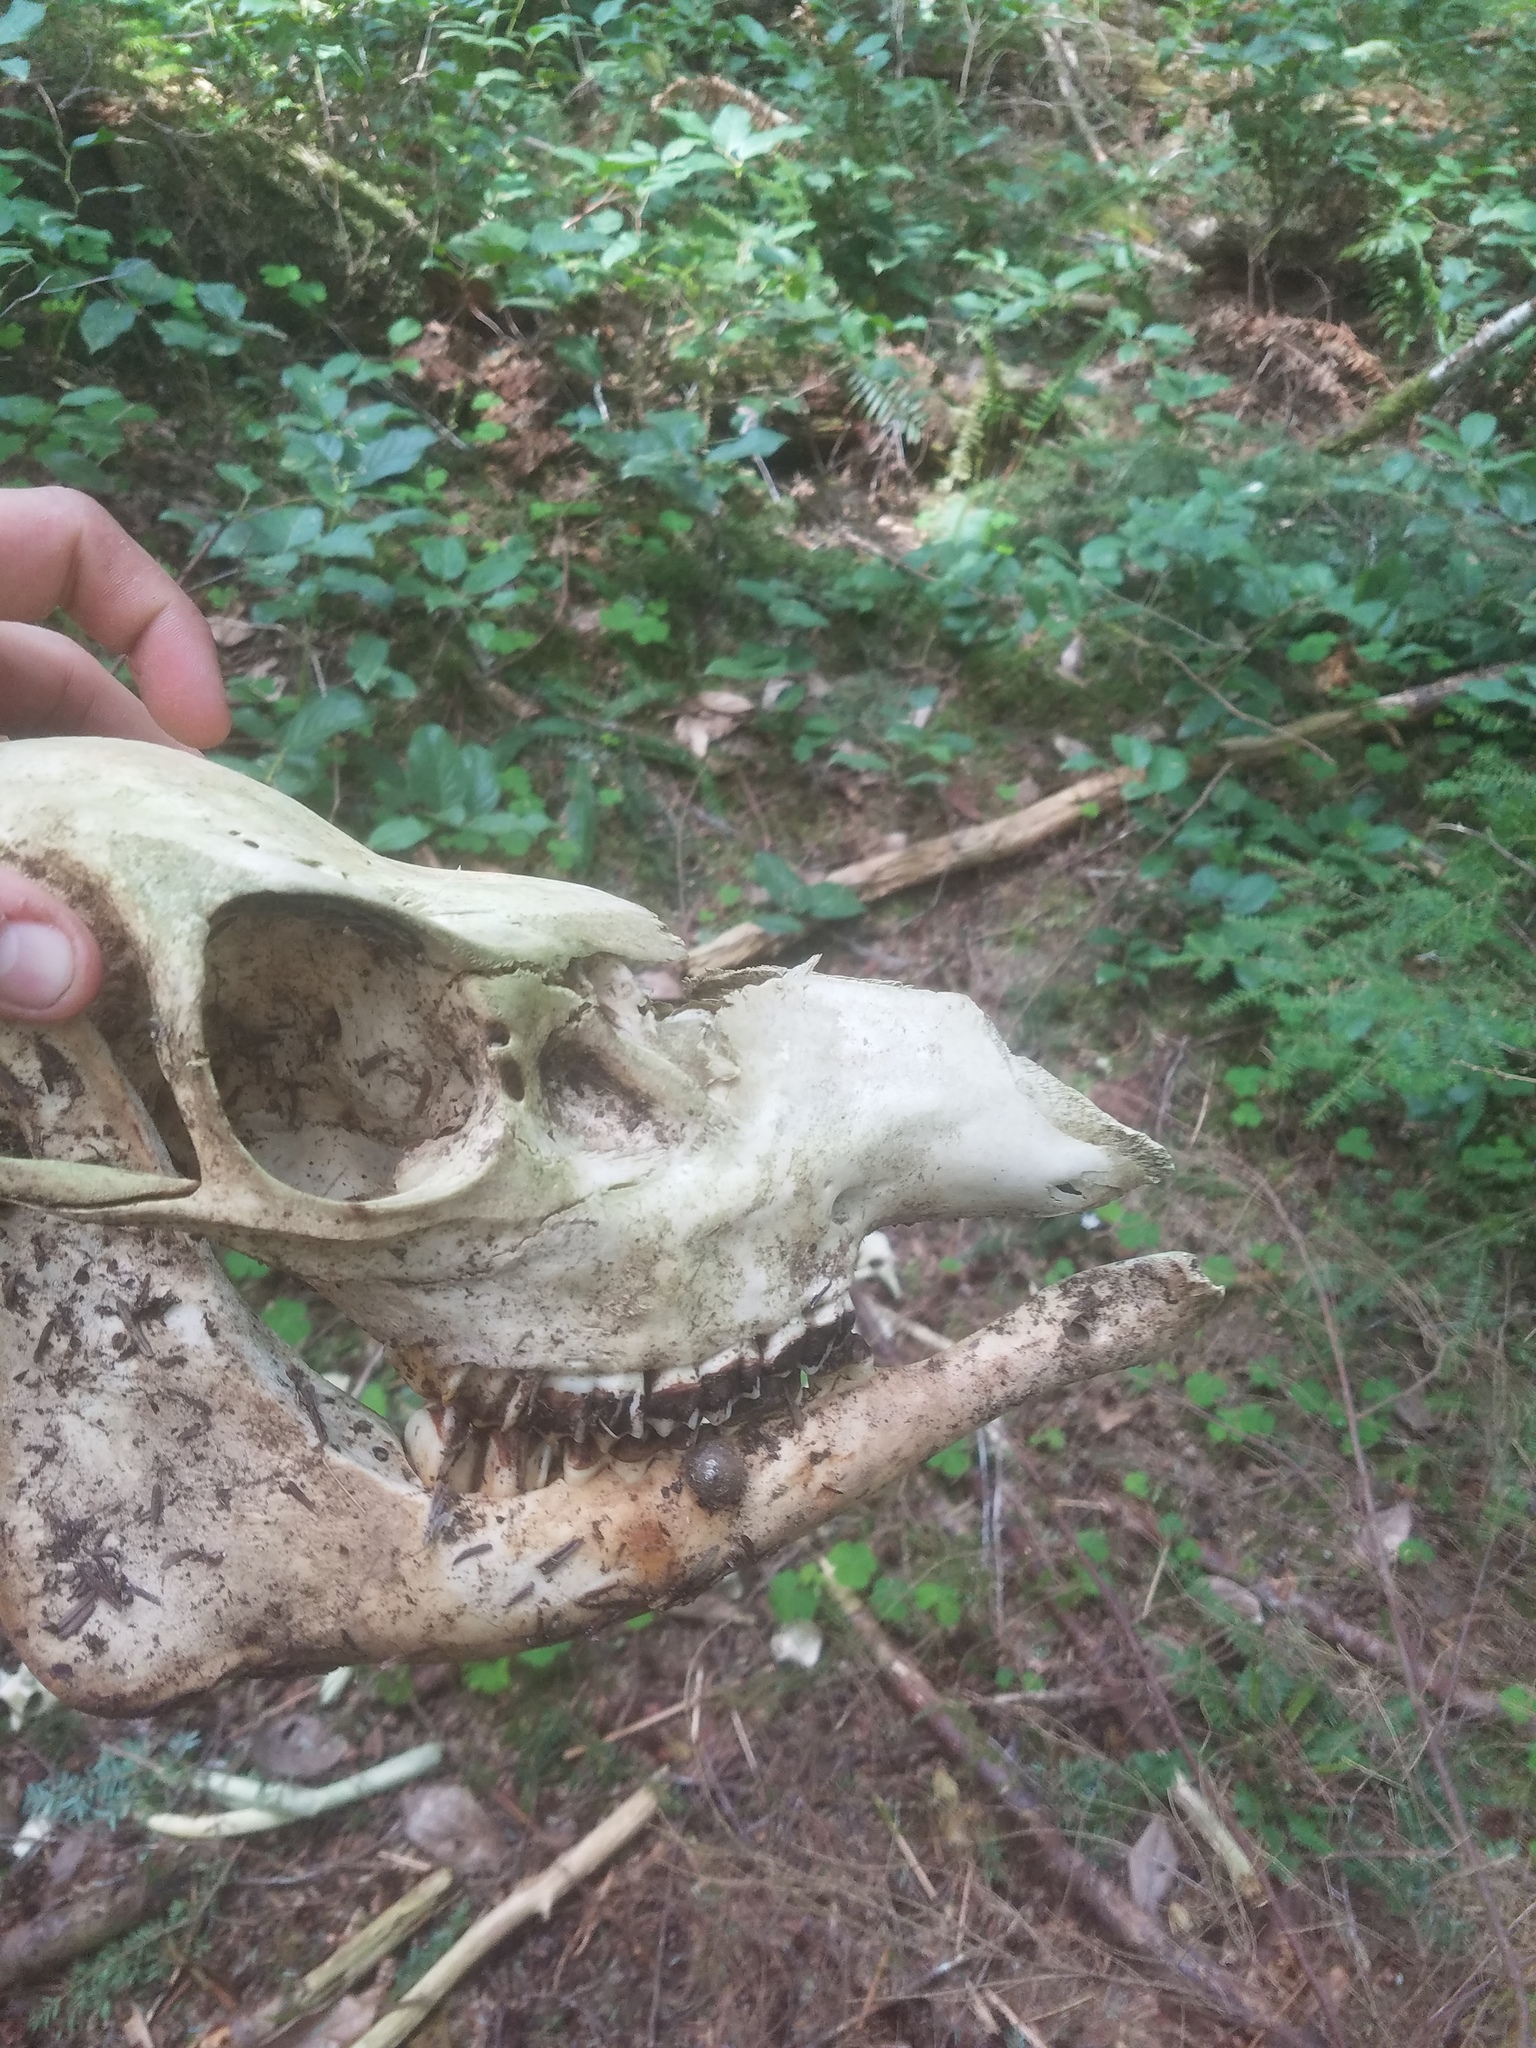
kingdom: Animalia
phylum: Chordata
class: Mammalia
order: Artiodactyla
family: Cervidae
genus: Cervus
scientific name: Cervus elaphus
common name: Red deer
